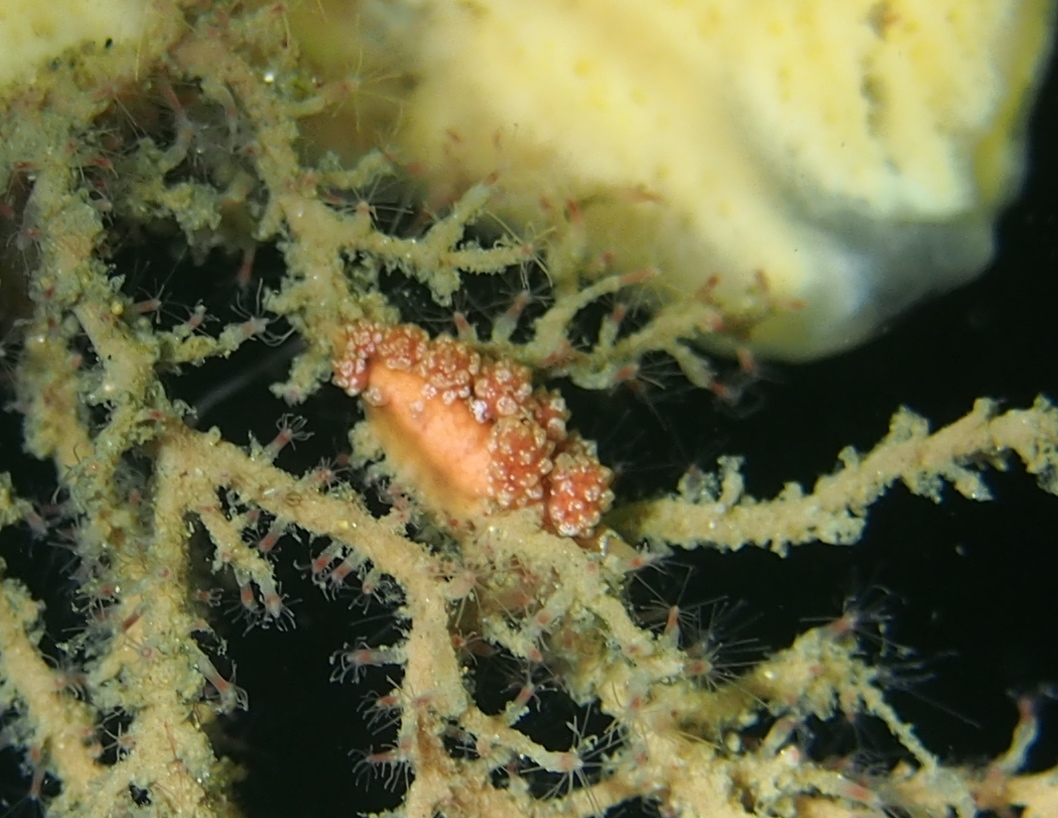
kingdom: Animalia
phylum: Mollusca
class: Gastropoda
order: Nudibranchia
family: Dotidae
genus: Doto
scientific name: Doto fragilis
